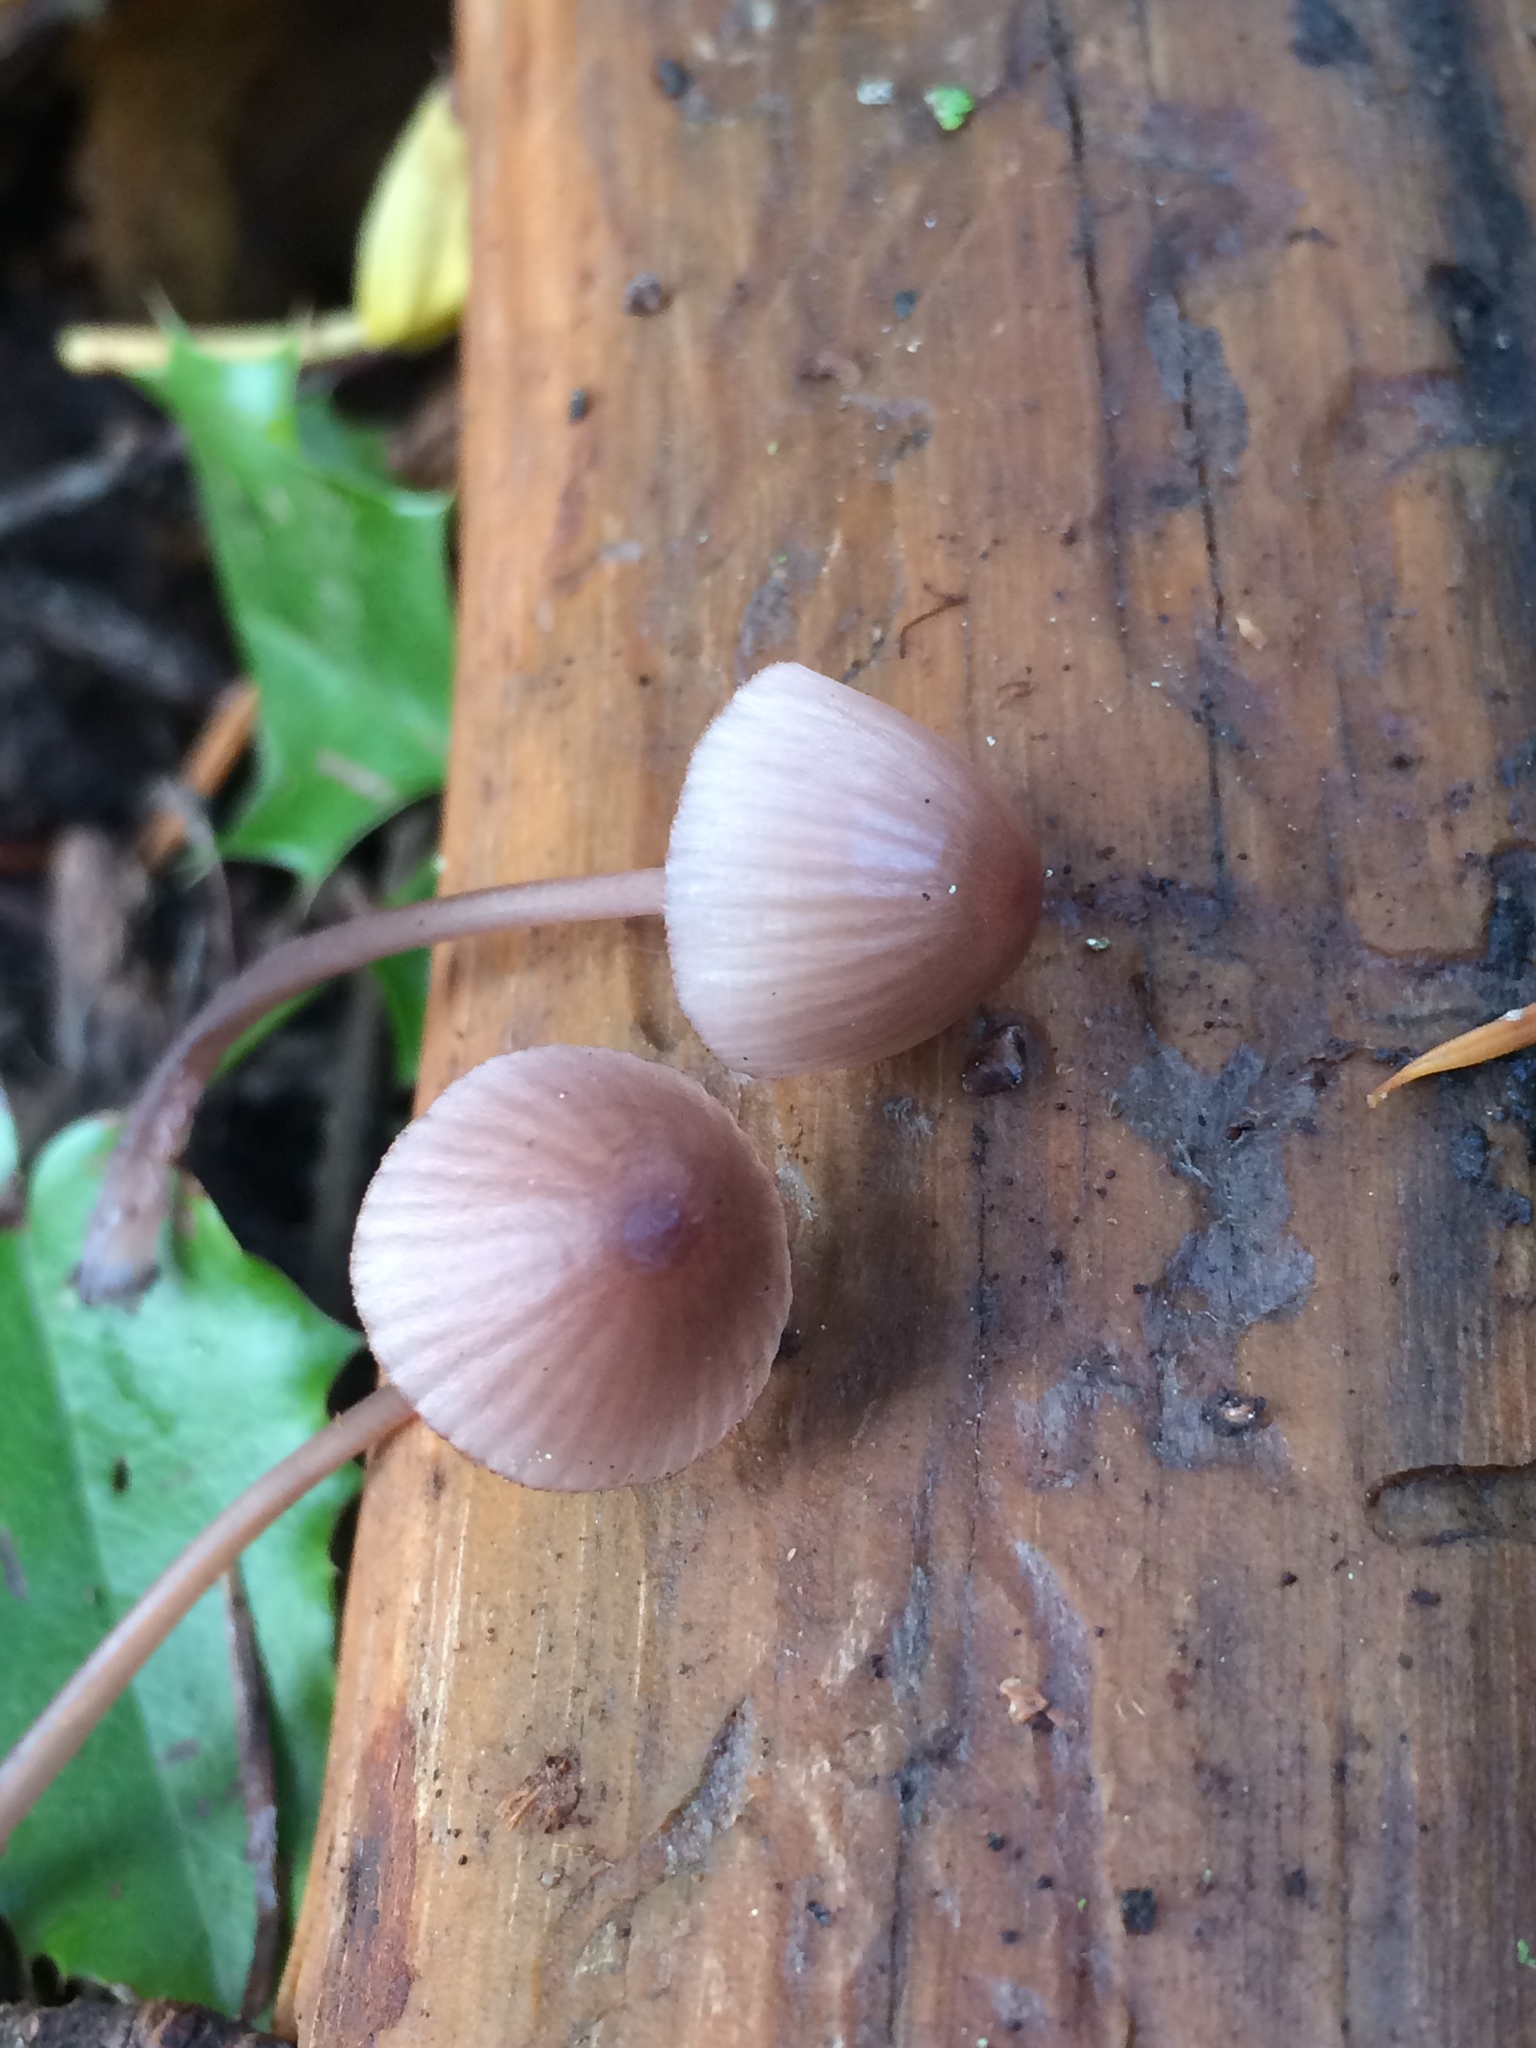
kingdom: Fungi
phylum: Basidiomycota
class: Agaricomycetes
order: Agaricales
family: Mycenaceae
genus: Mycena
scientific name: Mycena haematopus
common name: Burgundydrop bonnet
